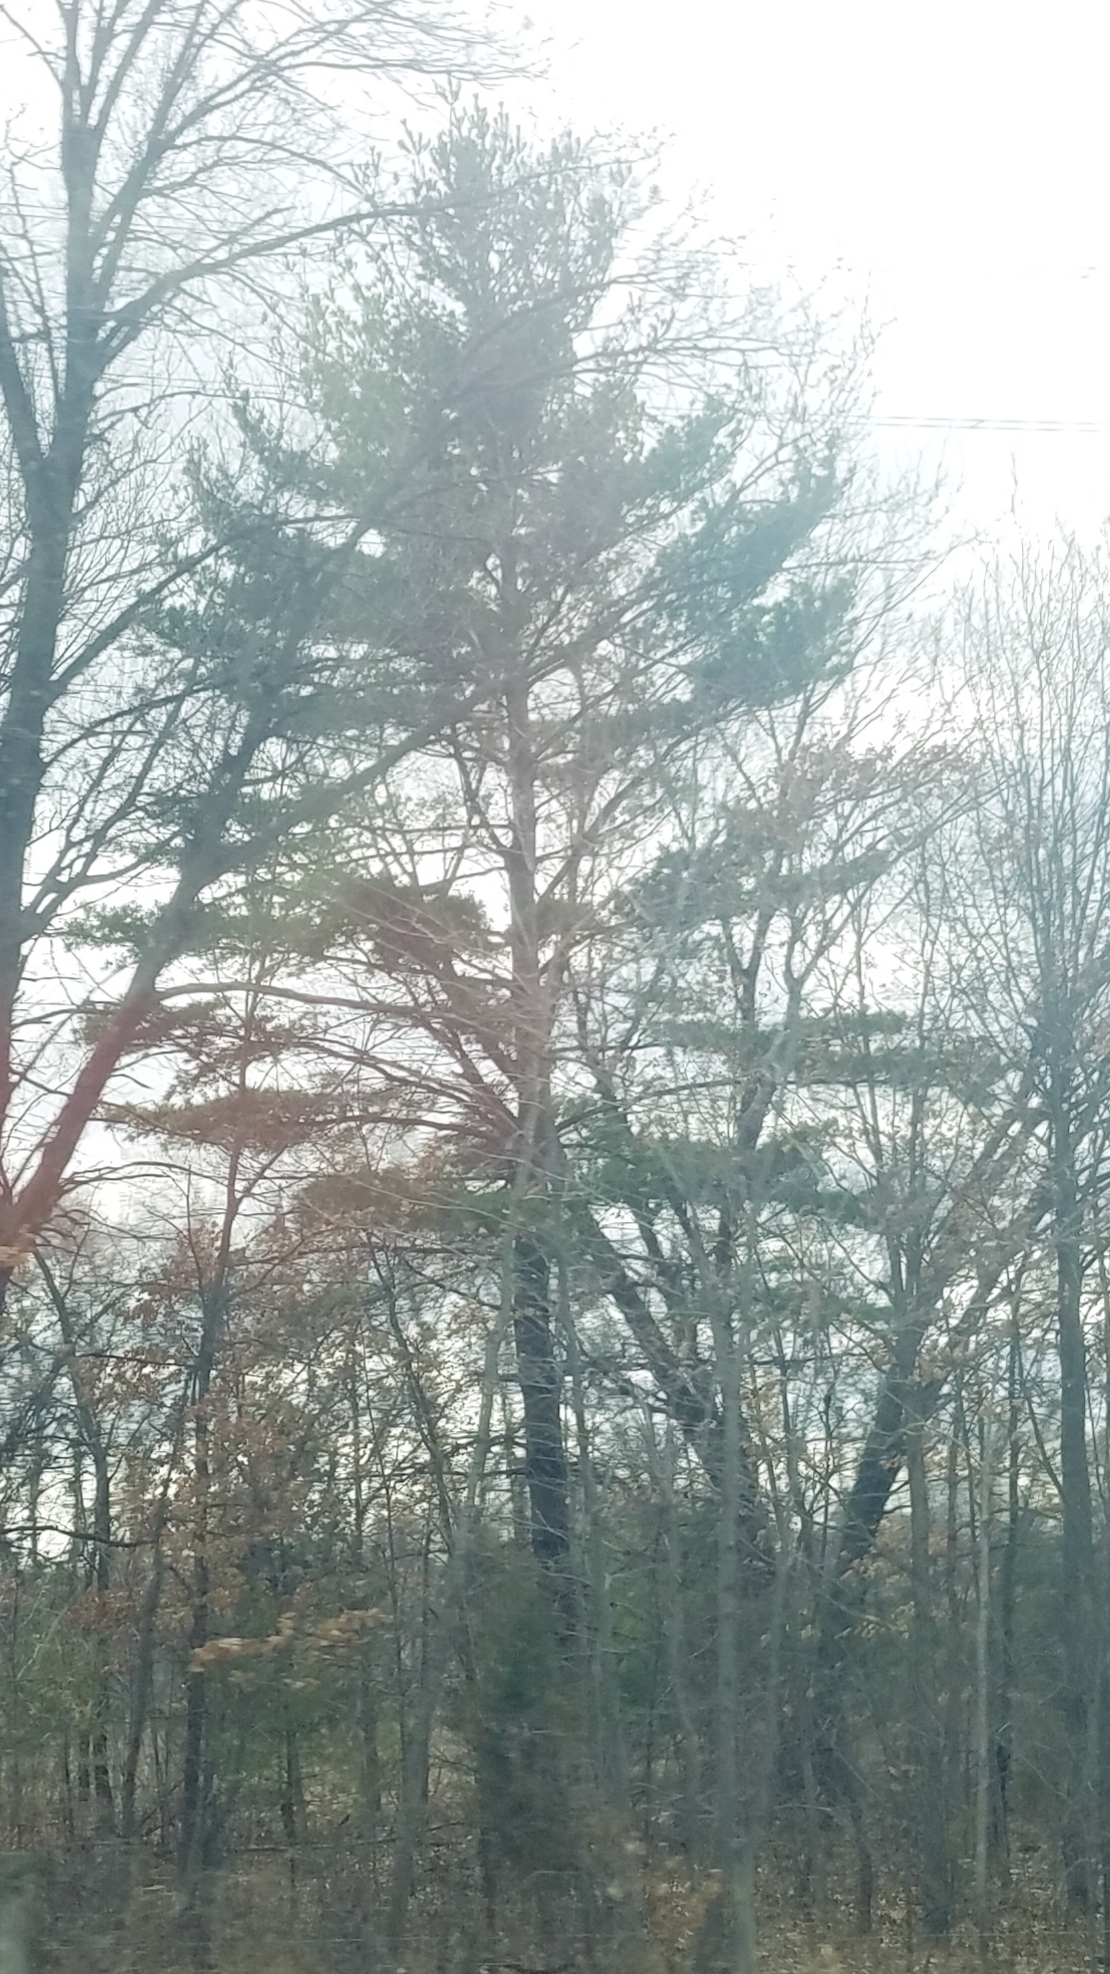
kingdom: Plantae
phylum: Tracheophyta
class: Pinopsida
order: Pinales
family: Pinaceae
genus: Pinus
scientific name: Pinus strobus
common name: Weymouth pine
